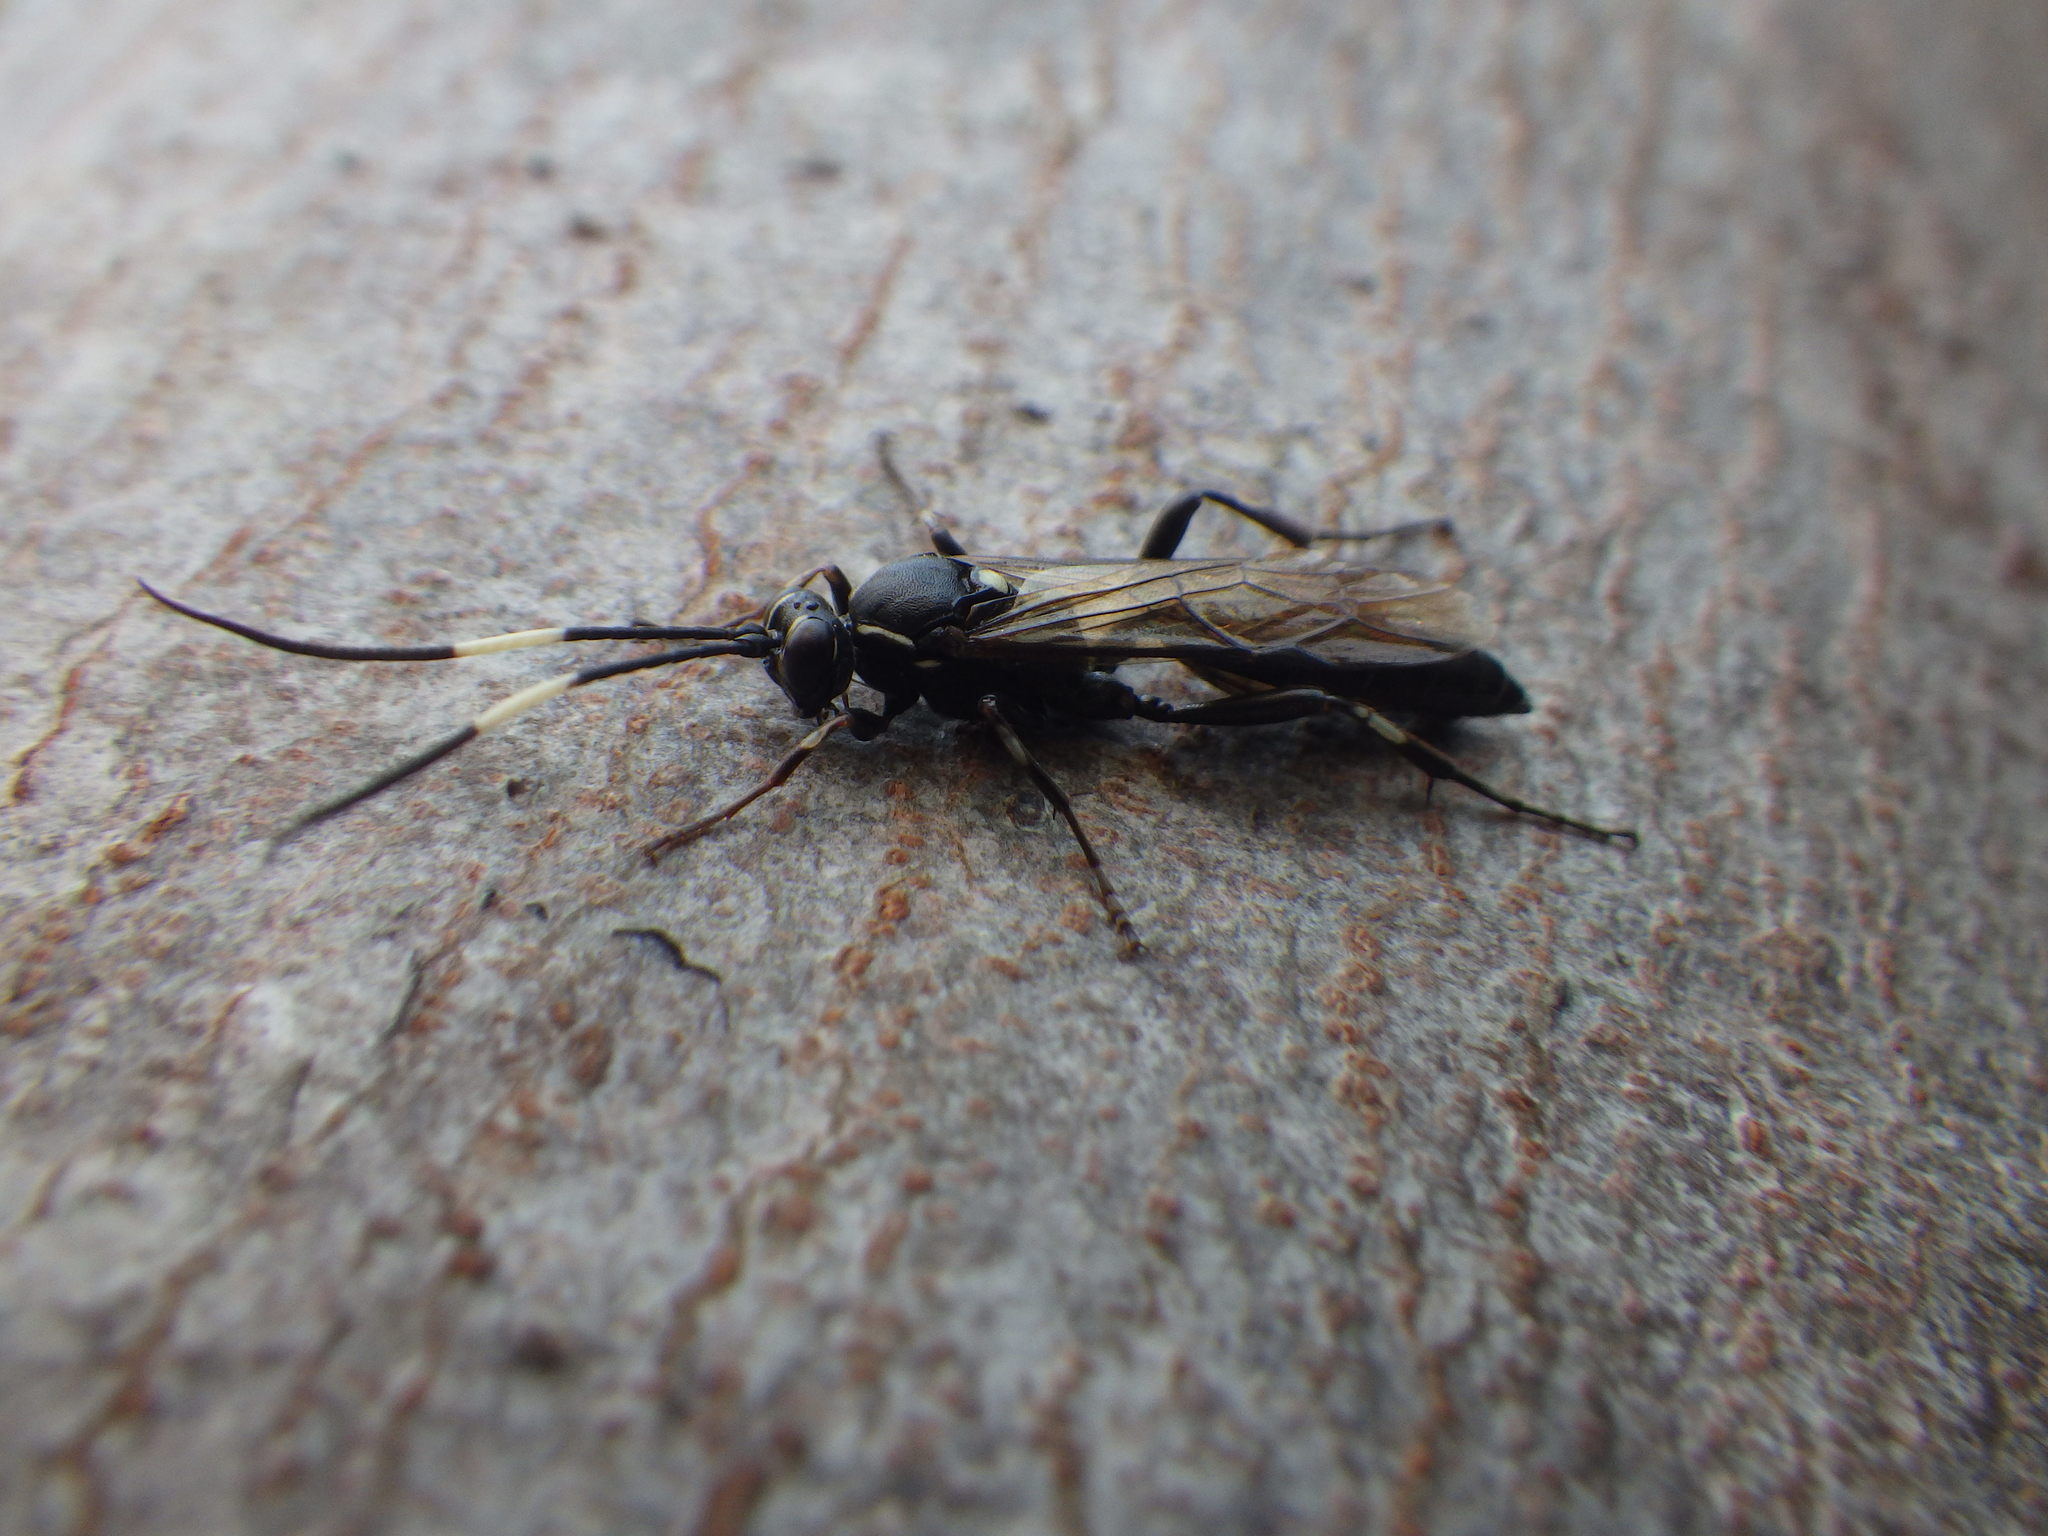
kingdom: Animalia
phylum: Arthropoda
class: Insecta
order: Hymenoptera
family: Ichneumonidae
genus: Orgichneumon
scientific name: Orgichneumon calcatorius
